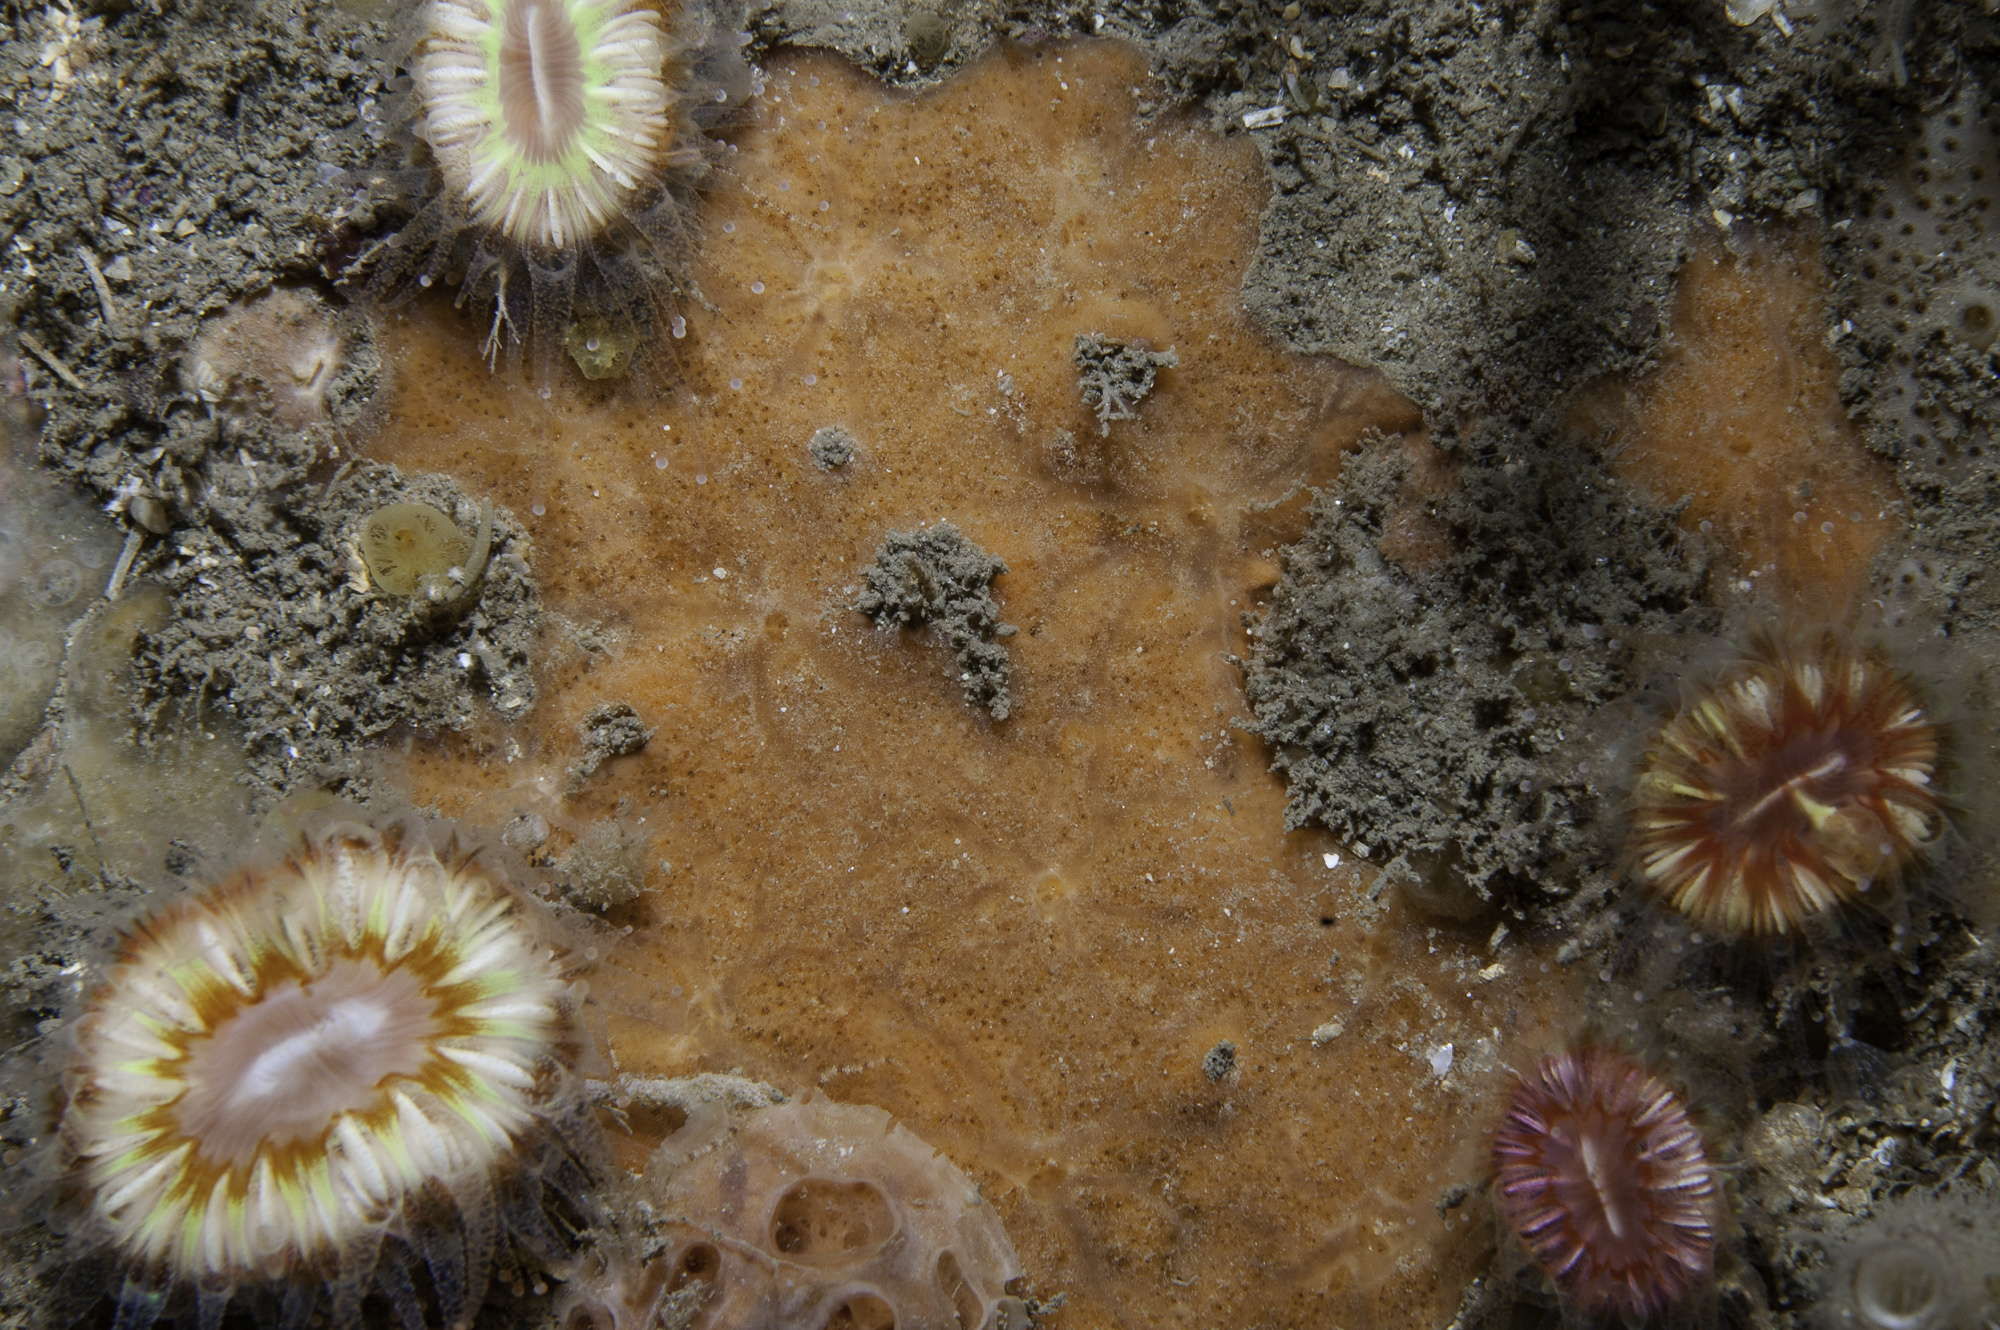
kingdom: Animalia
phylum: Porifera
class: Demospongiae
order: Poecilosclerida
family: Hymedesmiidae
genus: Plocamionida
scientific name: Plocamionida ambigua
